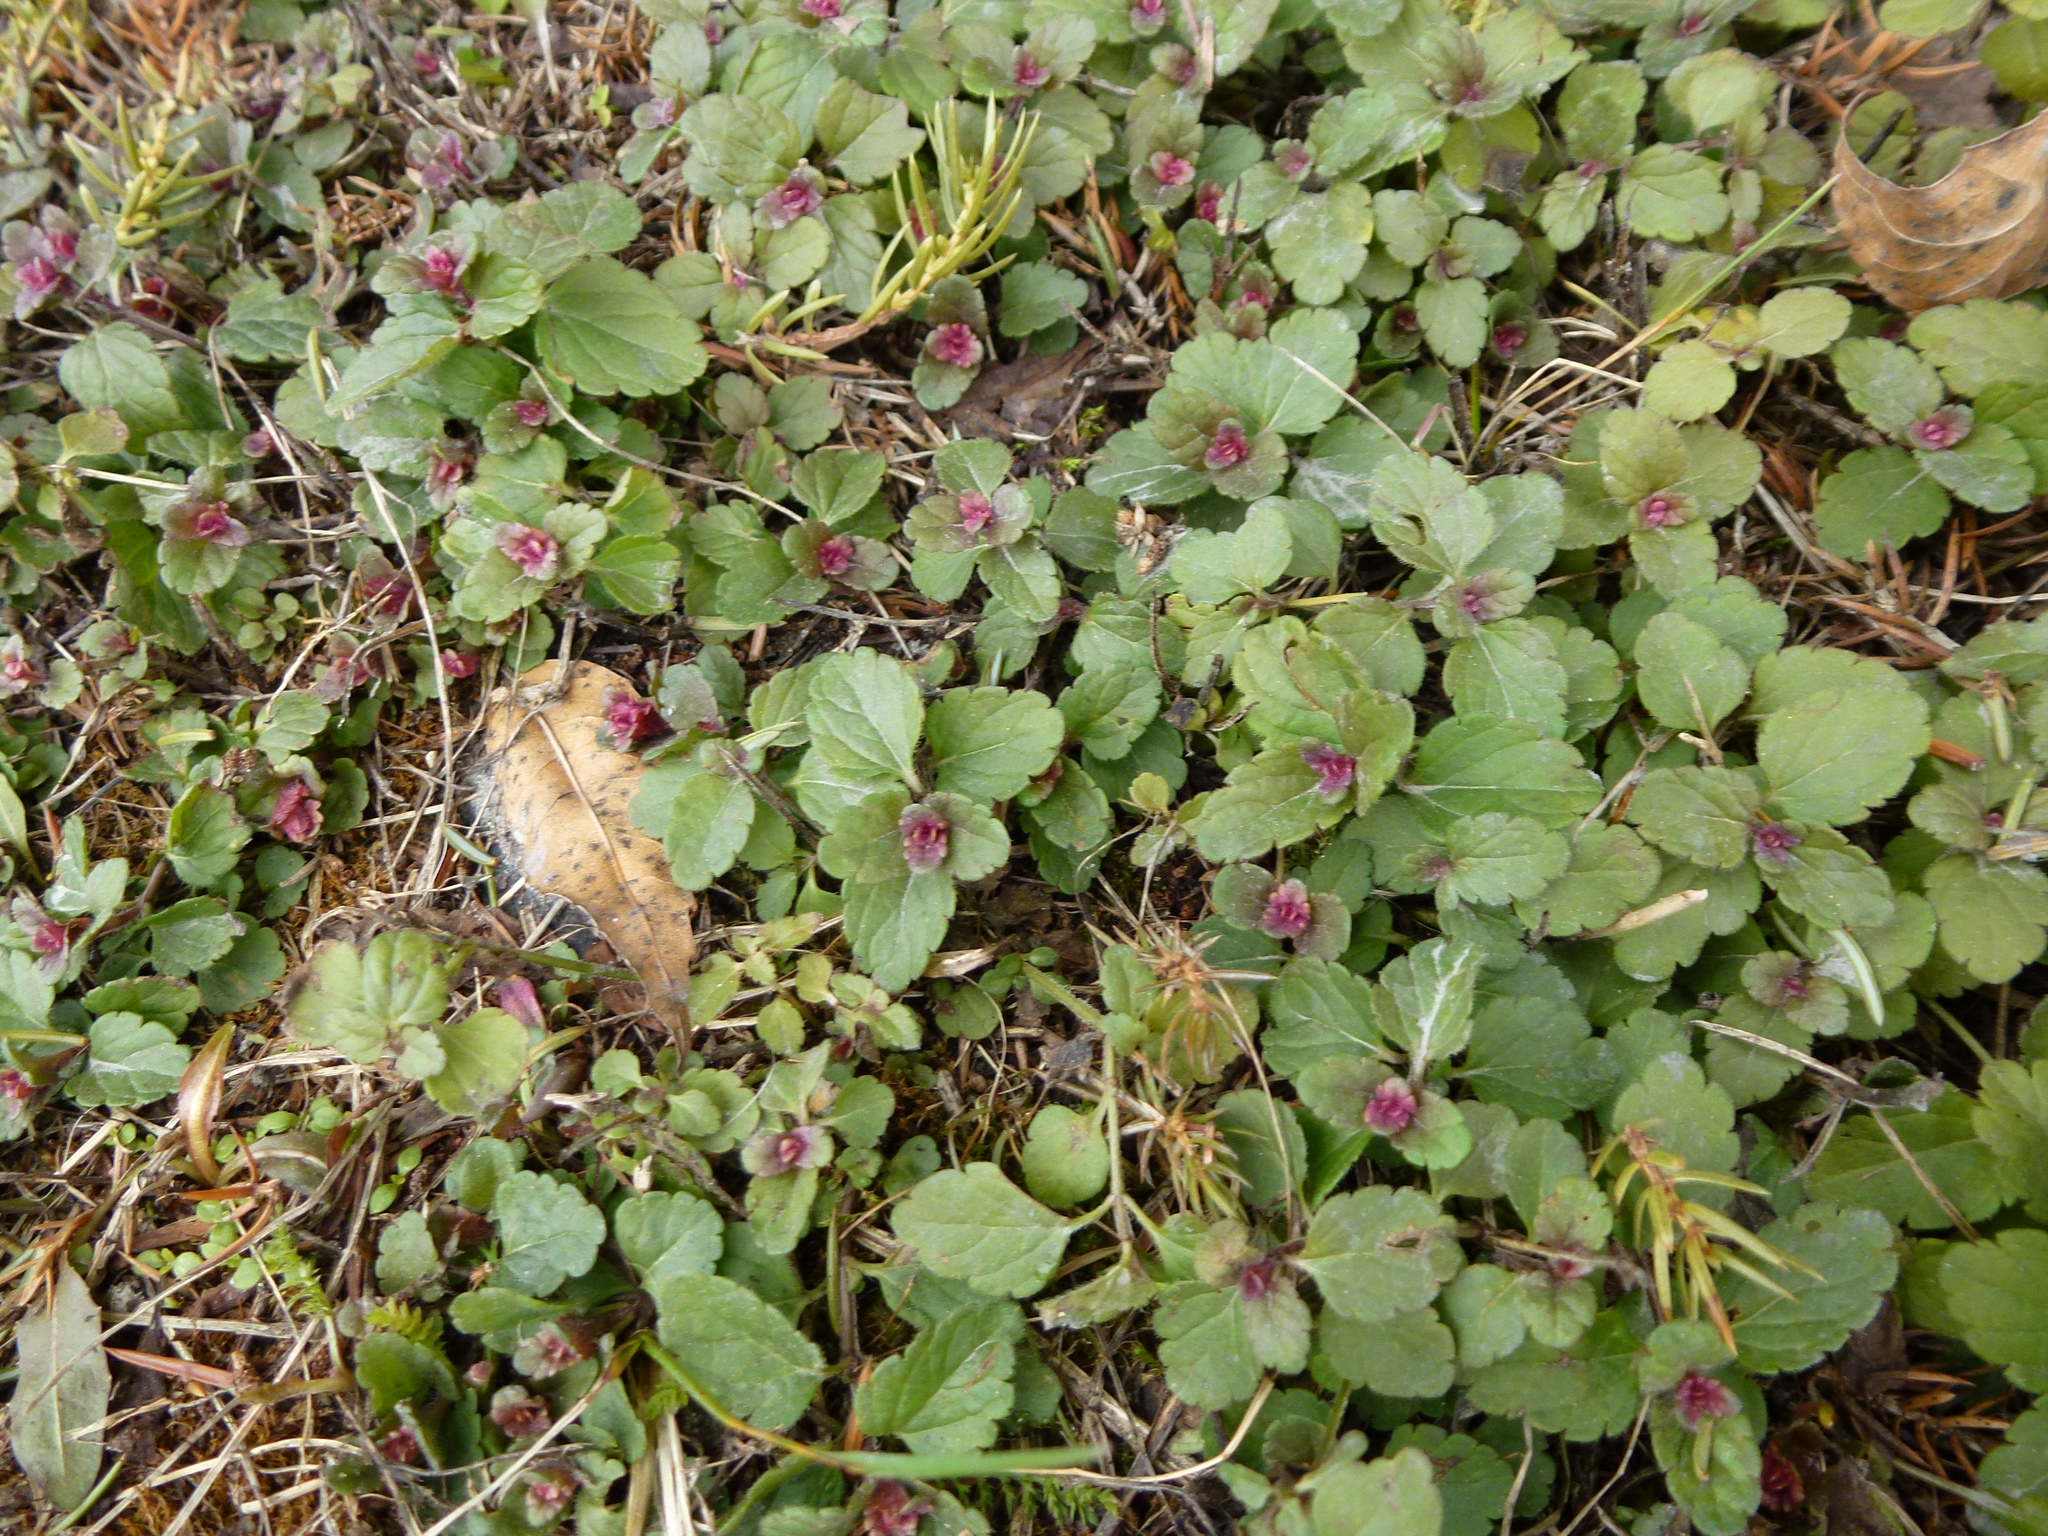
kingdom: Plantae
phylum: Tracheophyta
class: Magnoliopsida
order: Lamiales
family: Plantaginaceae
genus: Veronica
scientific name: Veronica chamaedrys
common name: Germander speedwell
